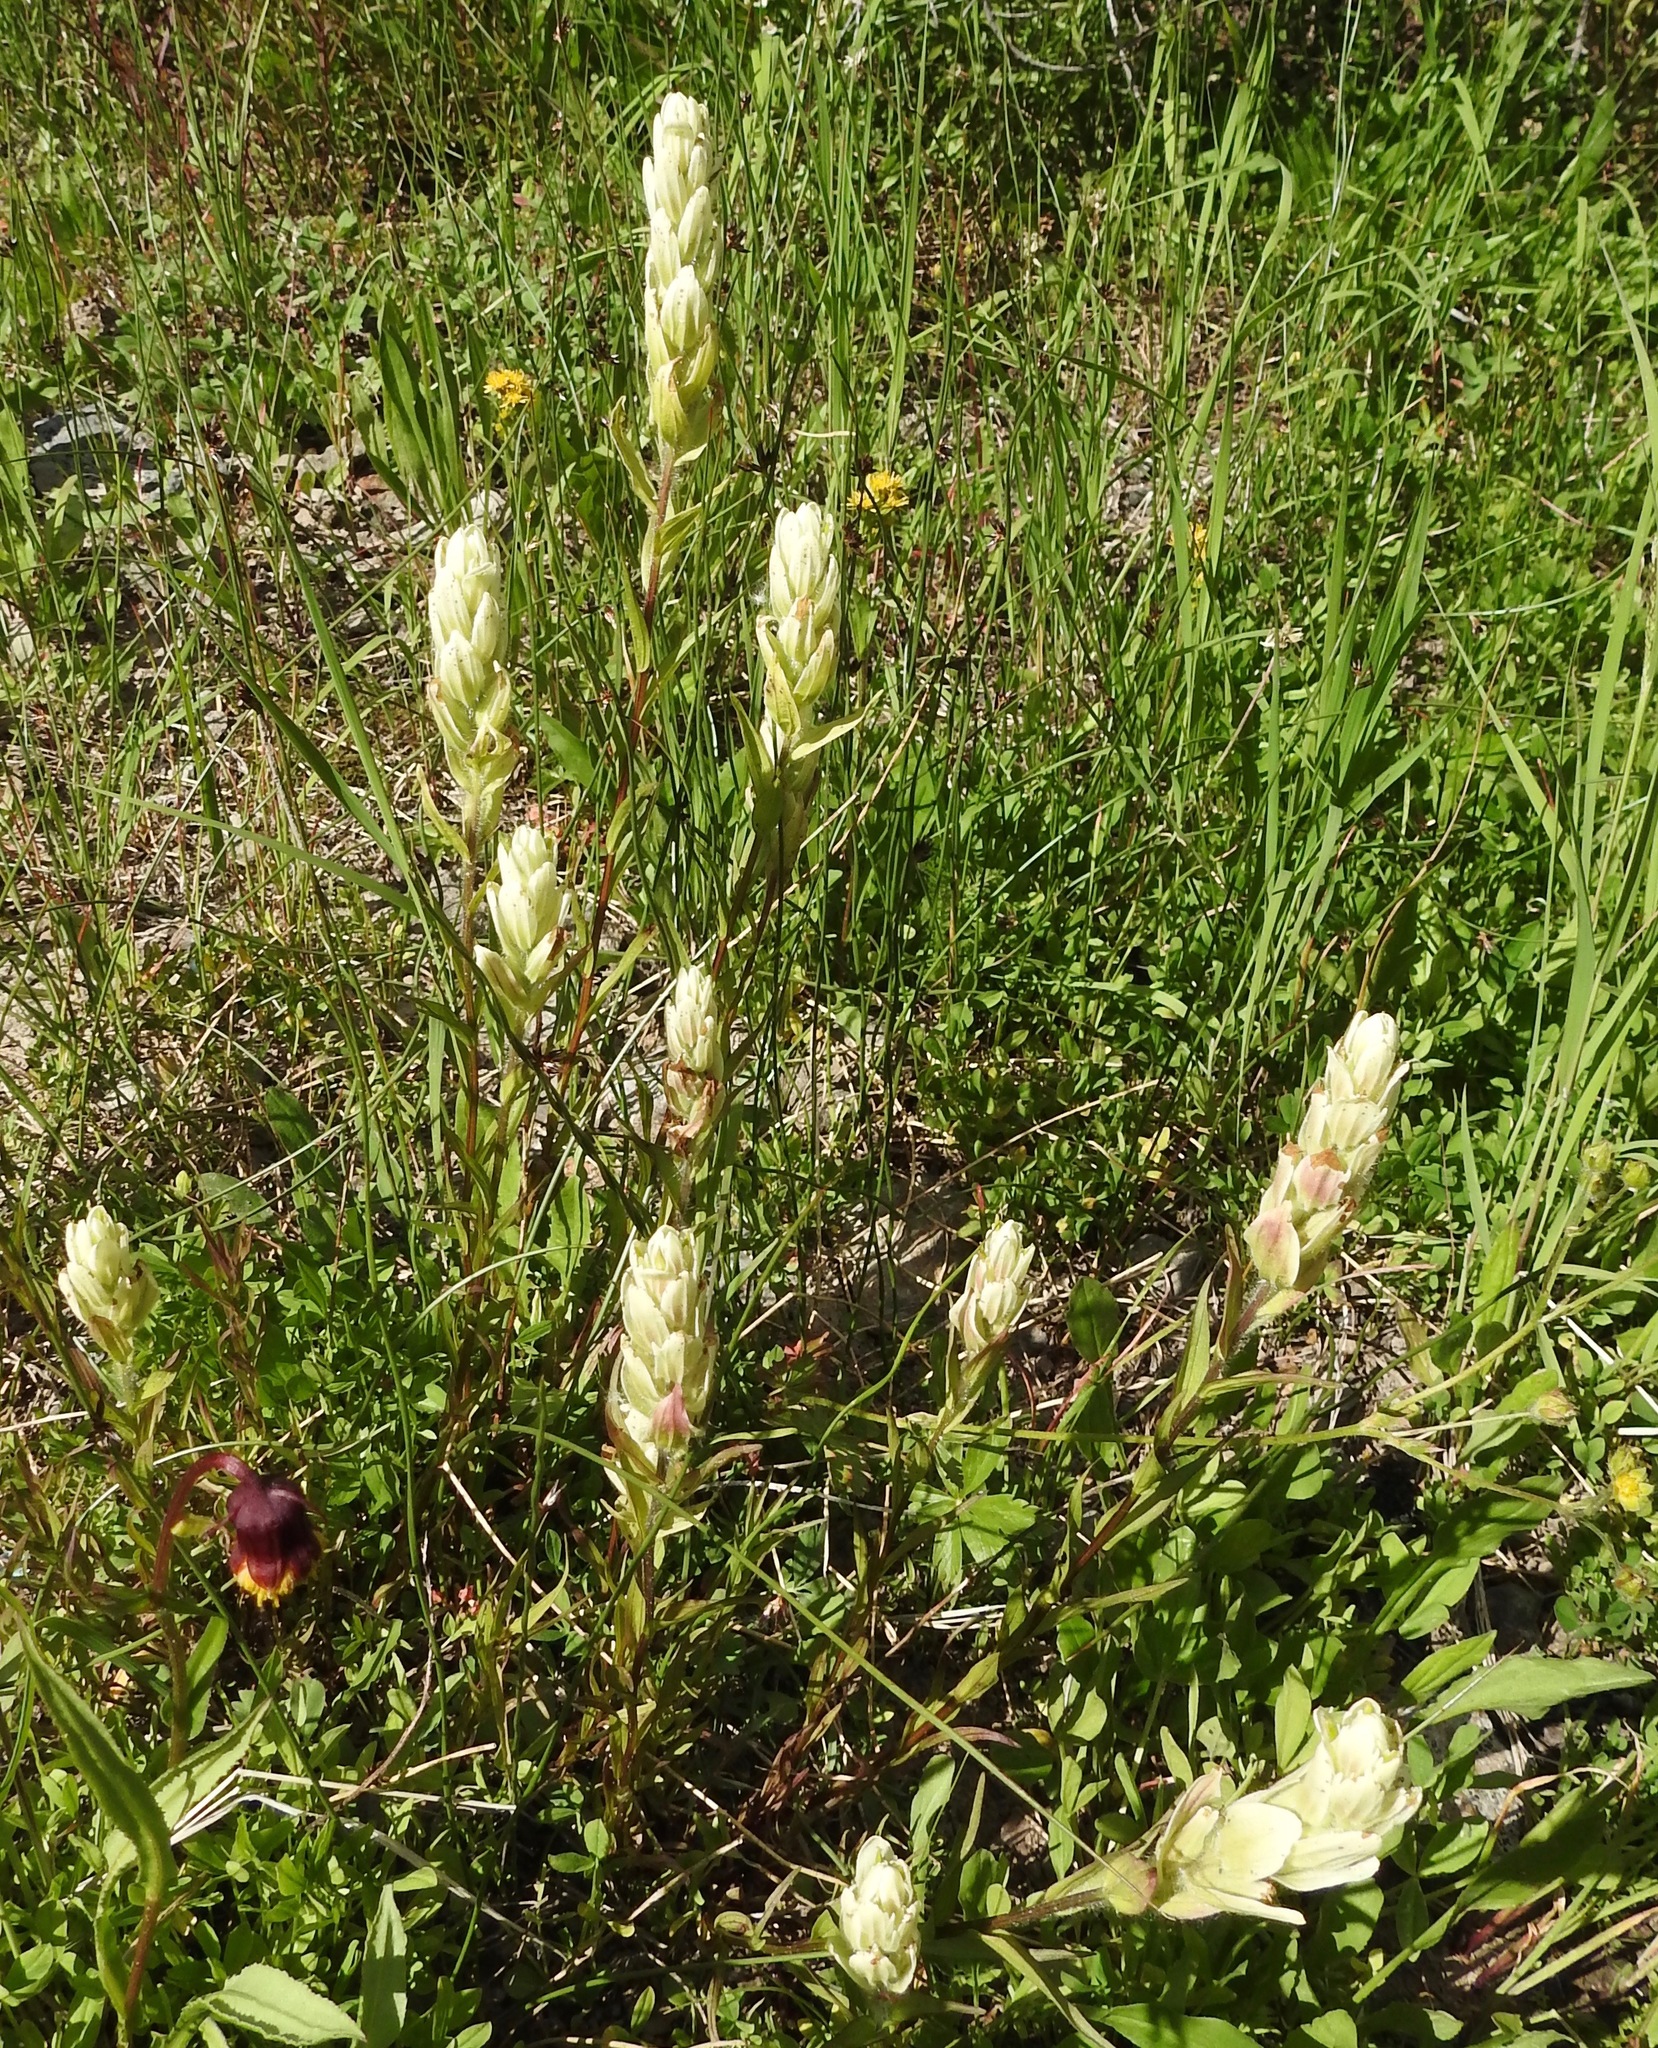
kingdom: Plantae
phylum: Tracheophyta
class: Magnoliopsida
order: Lamiales
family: Orobanchaceae
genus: Castilleja
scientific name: Castilleja septentrionalis
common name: Northeastern paintbrush
